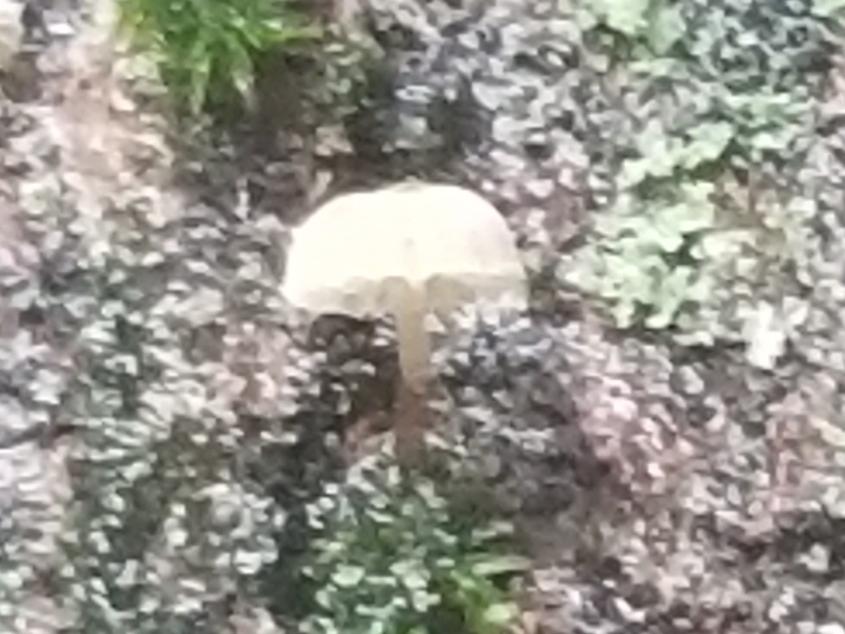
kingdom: Fungi
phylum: Basidiomycota
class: Agaricomycetes
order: Agaricales
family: Mycenaceae
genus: Mycena
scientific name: Mycena corticola
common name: Bark mycena
